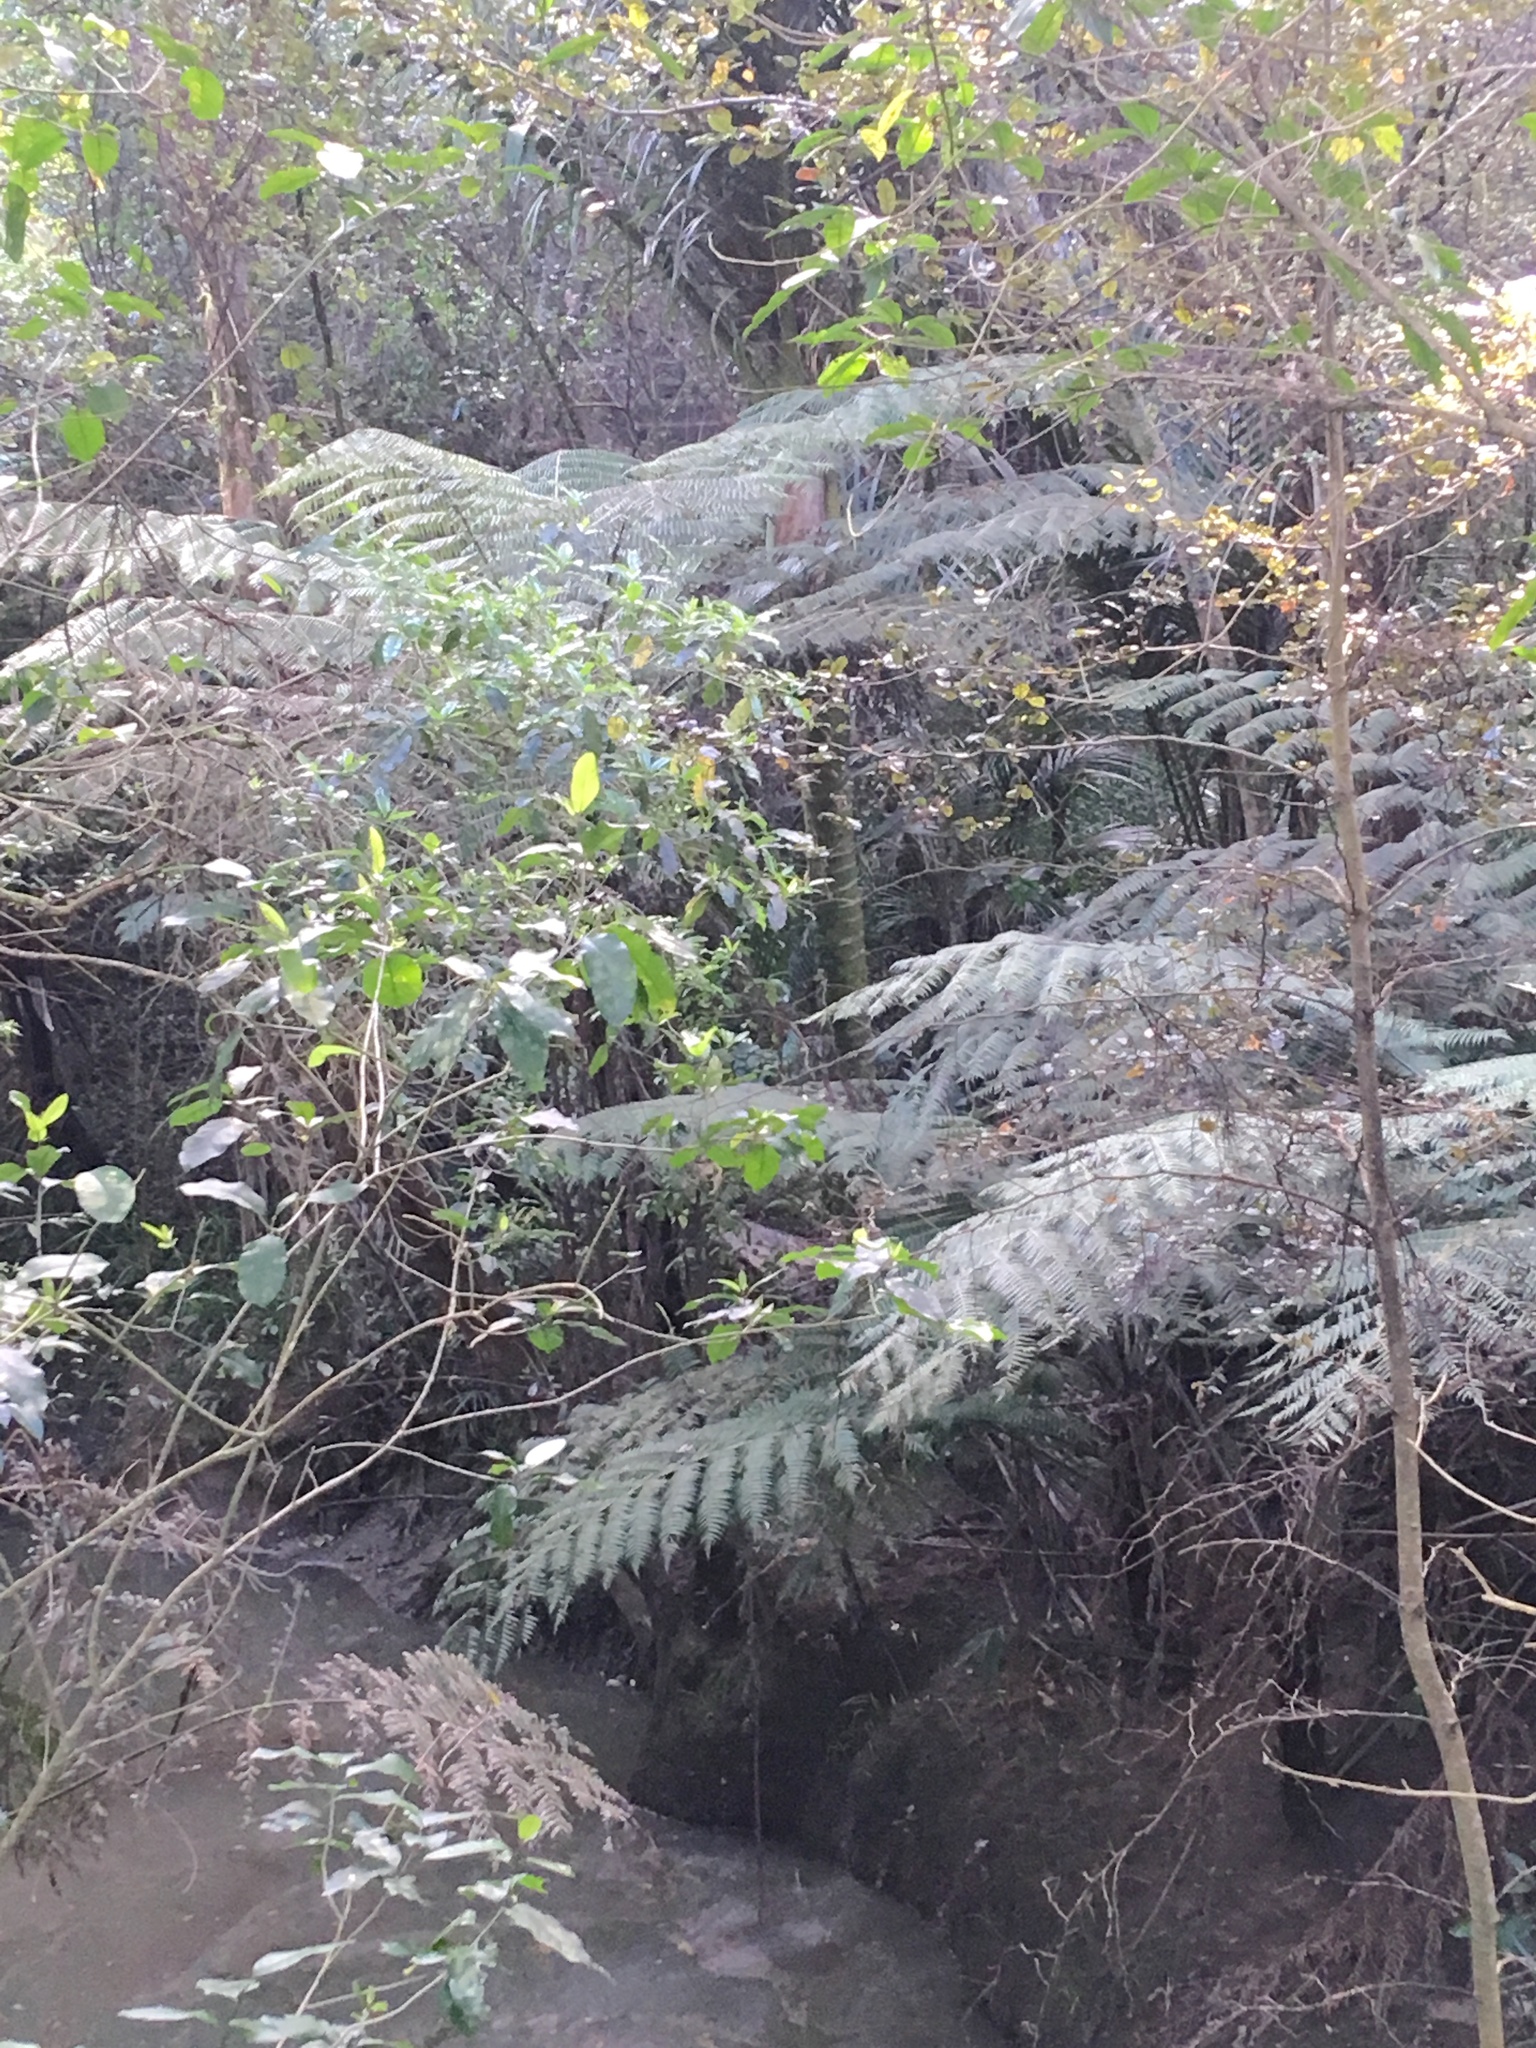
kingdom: Plantae
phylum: Tracheophyta
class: Liliopsida
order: Arecales
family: Arecaceae
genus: Rhopalostylis
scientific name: Rhopalostylis sapida
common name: Feather-duster palm
